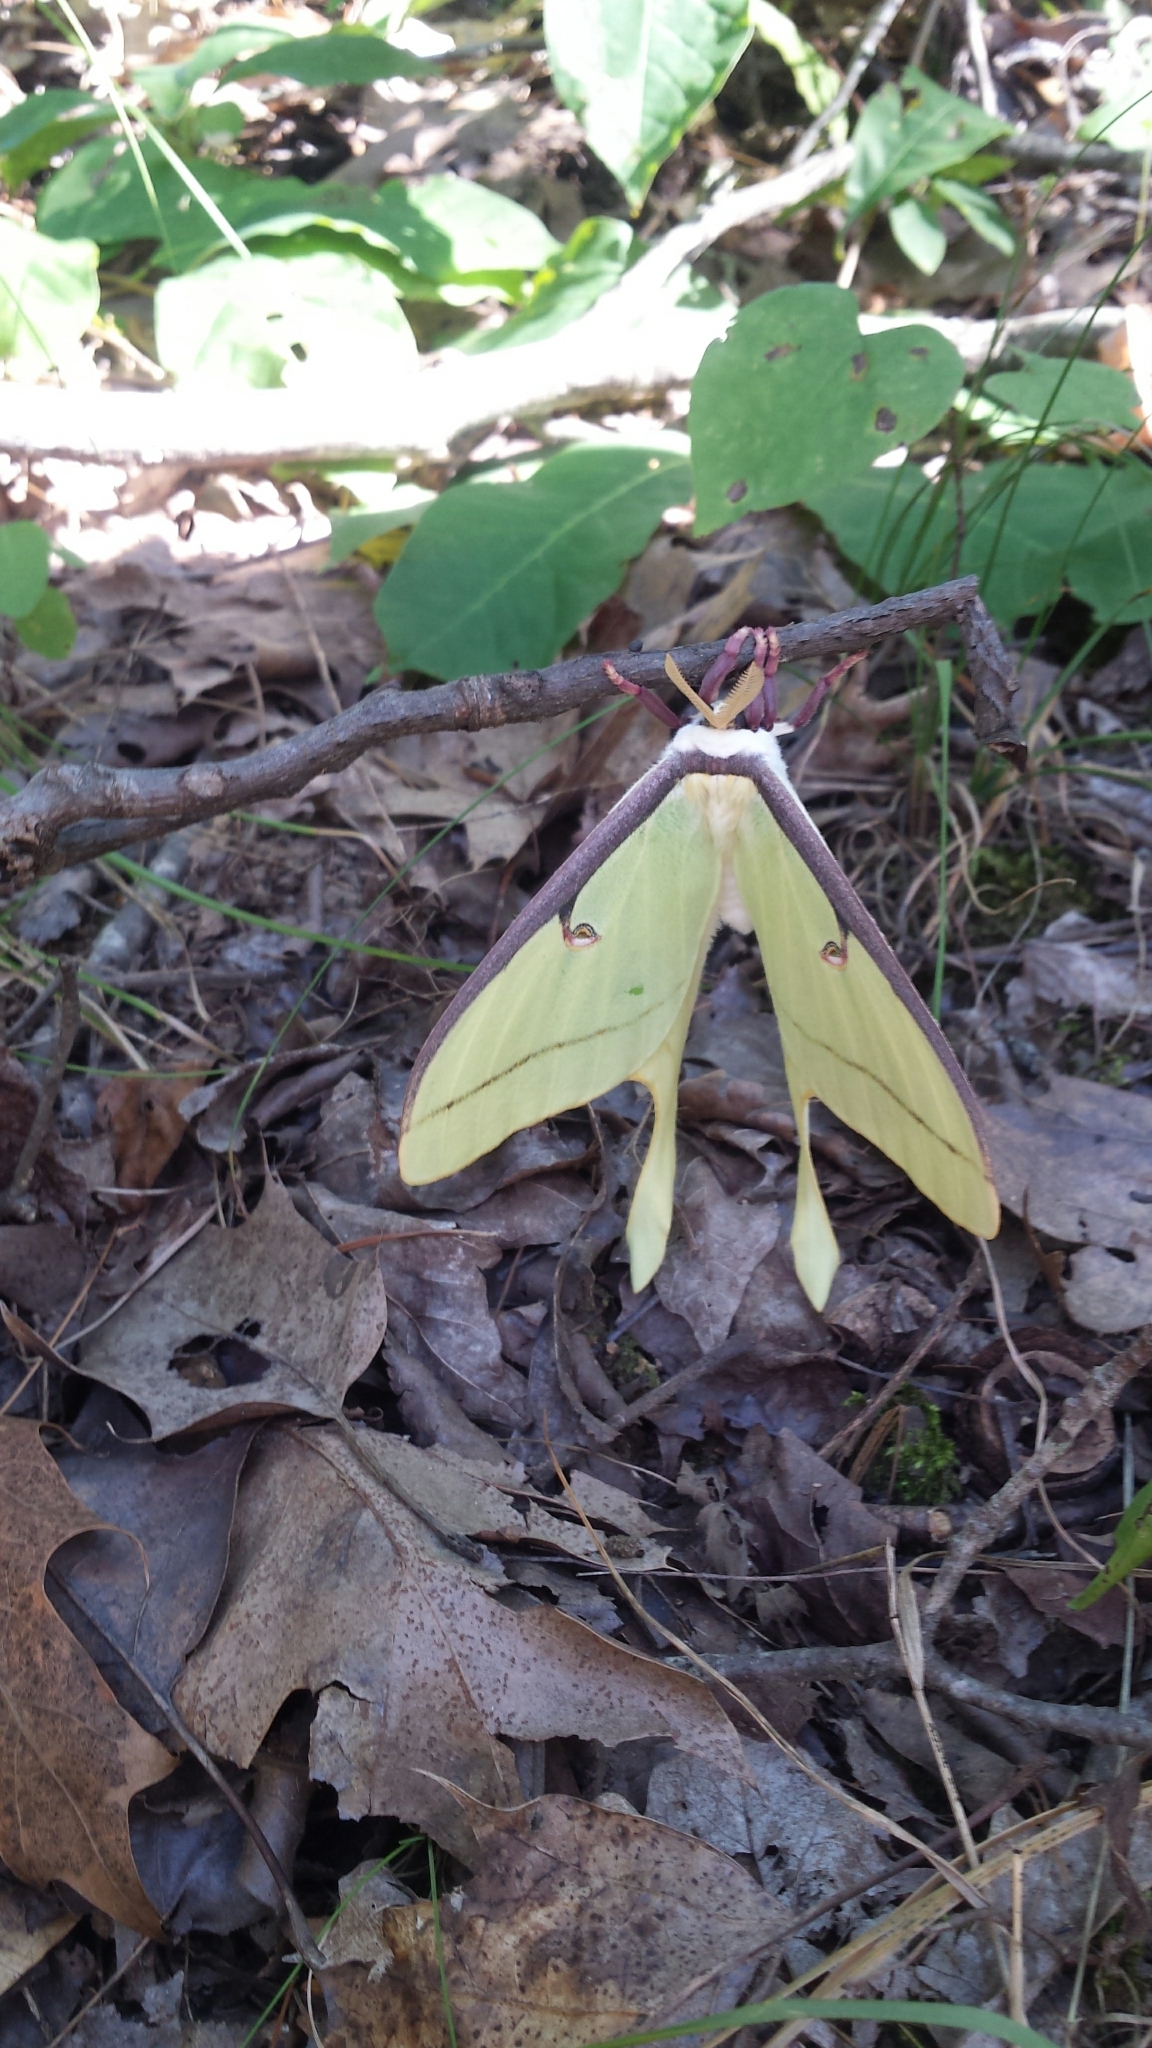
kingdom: Animalia
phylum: Arthropoda
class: Insecta
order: Lepidoptera
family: Saturniidae
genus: Actias
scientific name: Actias luna
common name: Luna moth
